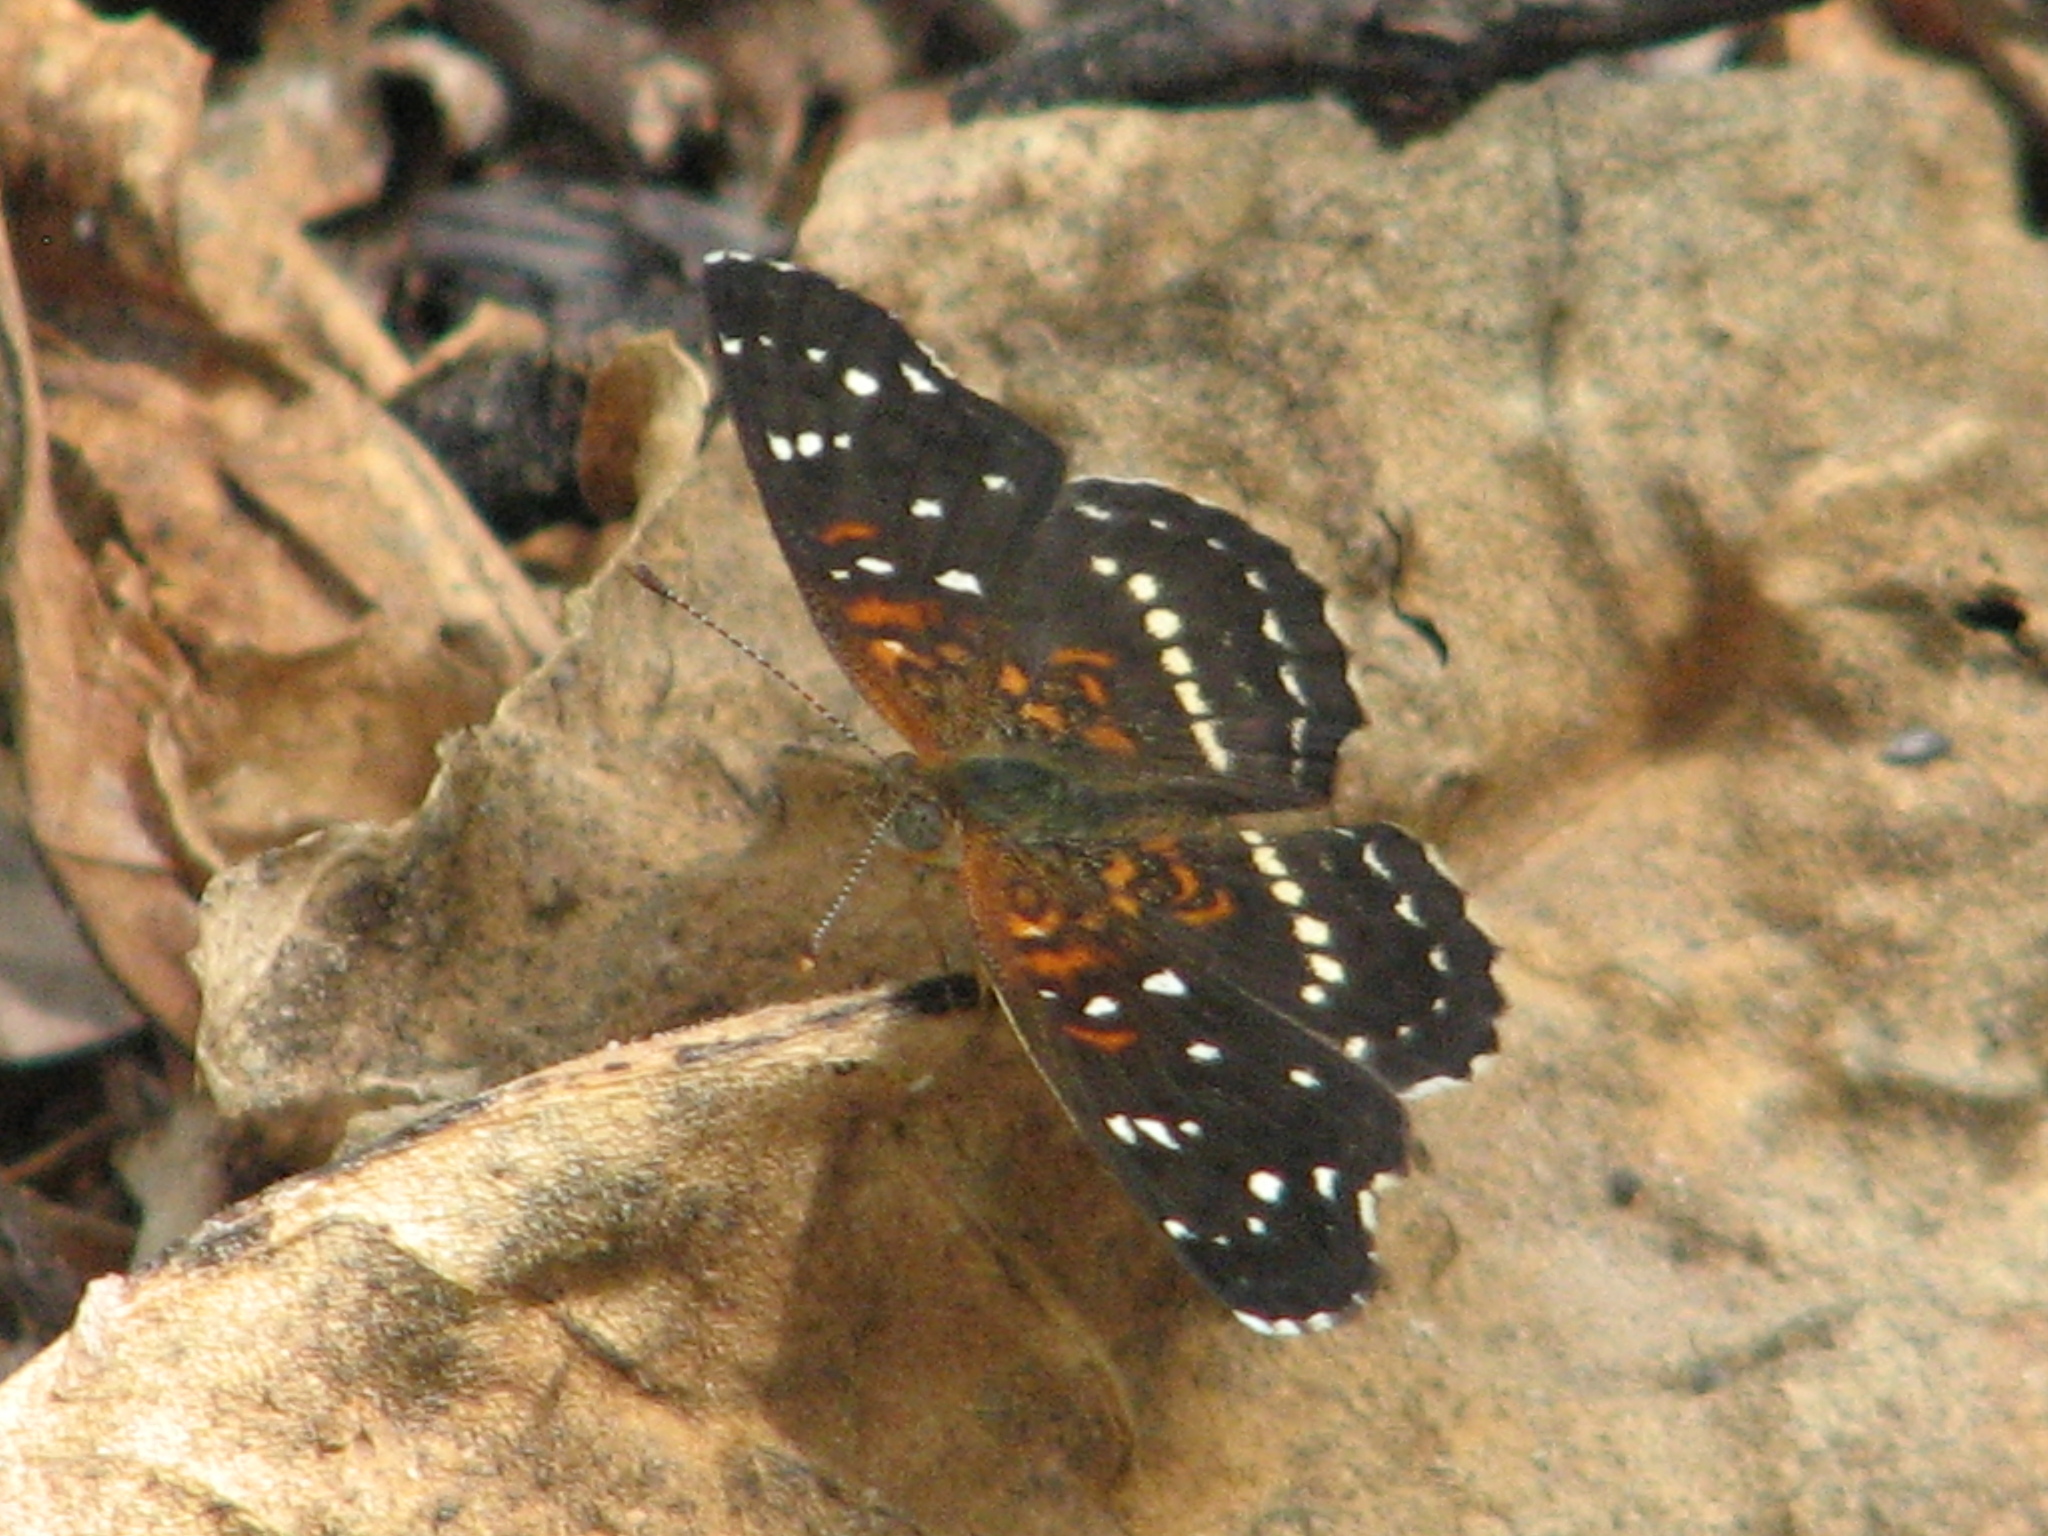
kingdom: Animalia
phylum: Arthropoda
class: Insecta
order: Lepidoptera
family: Nymphalidae
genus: Anthanassa
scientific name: Anthanassa texana
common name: Texan crescent
